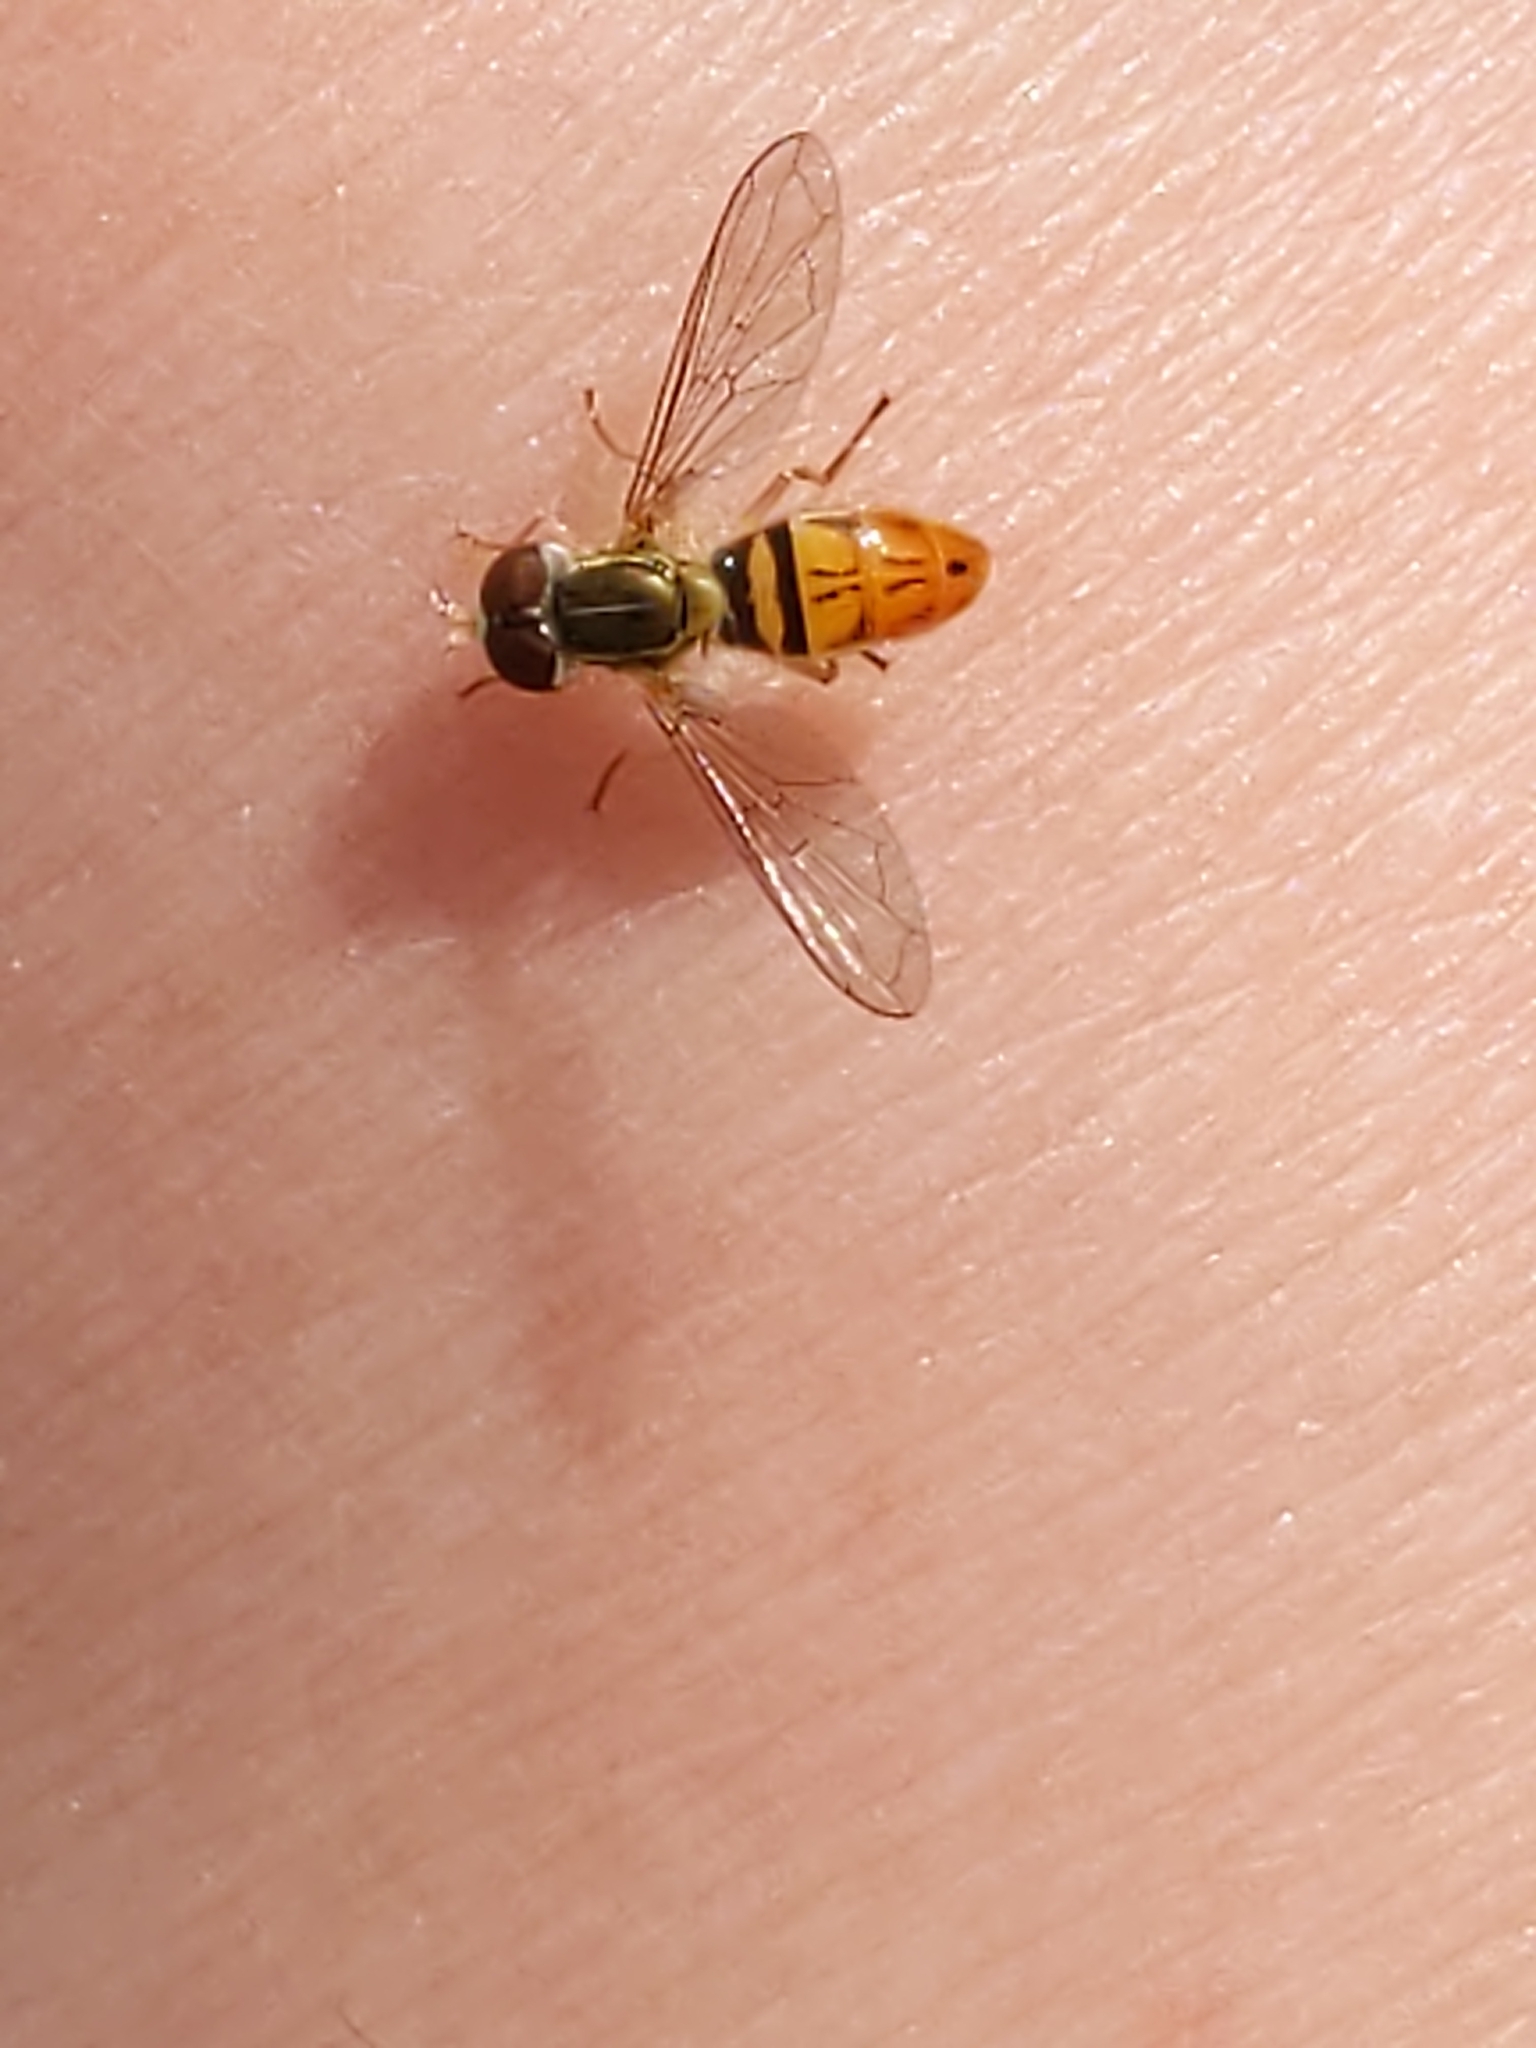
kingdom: Animalia
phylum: Arthropoda
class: Insecta
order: Diptera
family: Syrphidae
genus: Toxomerus
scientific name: Toxomerus marginatus
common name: Syrphid fly
